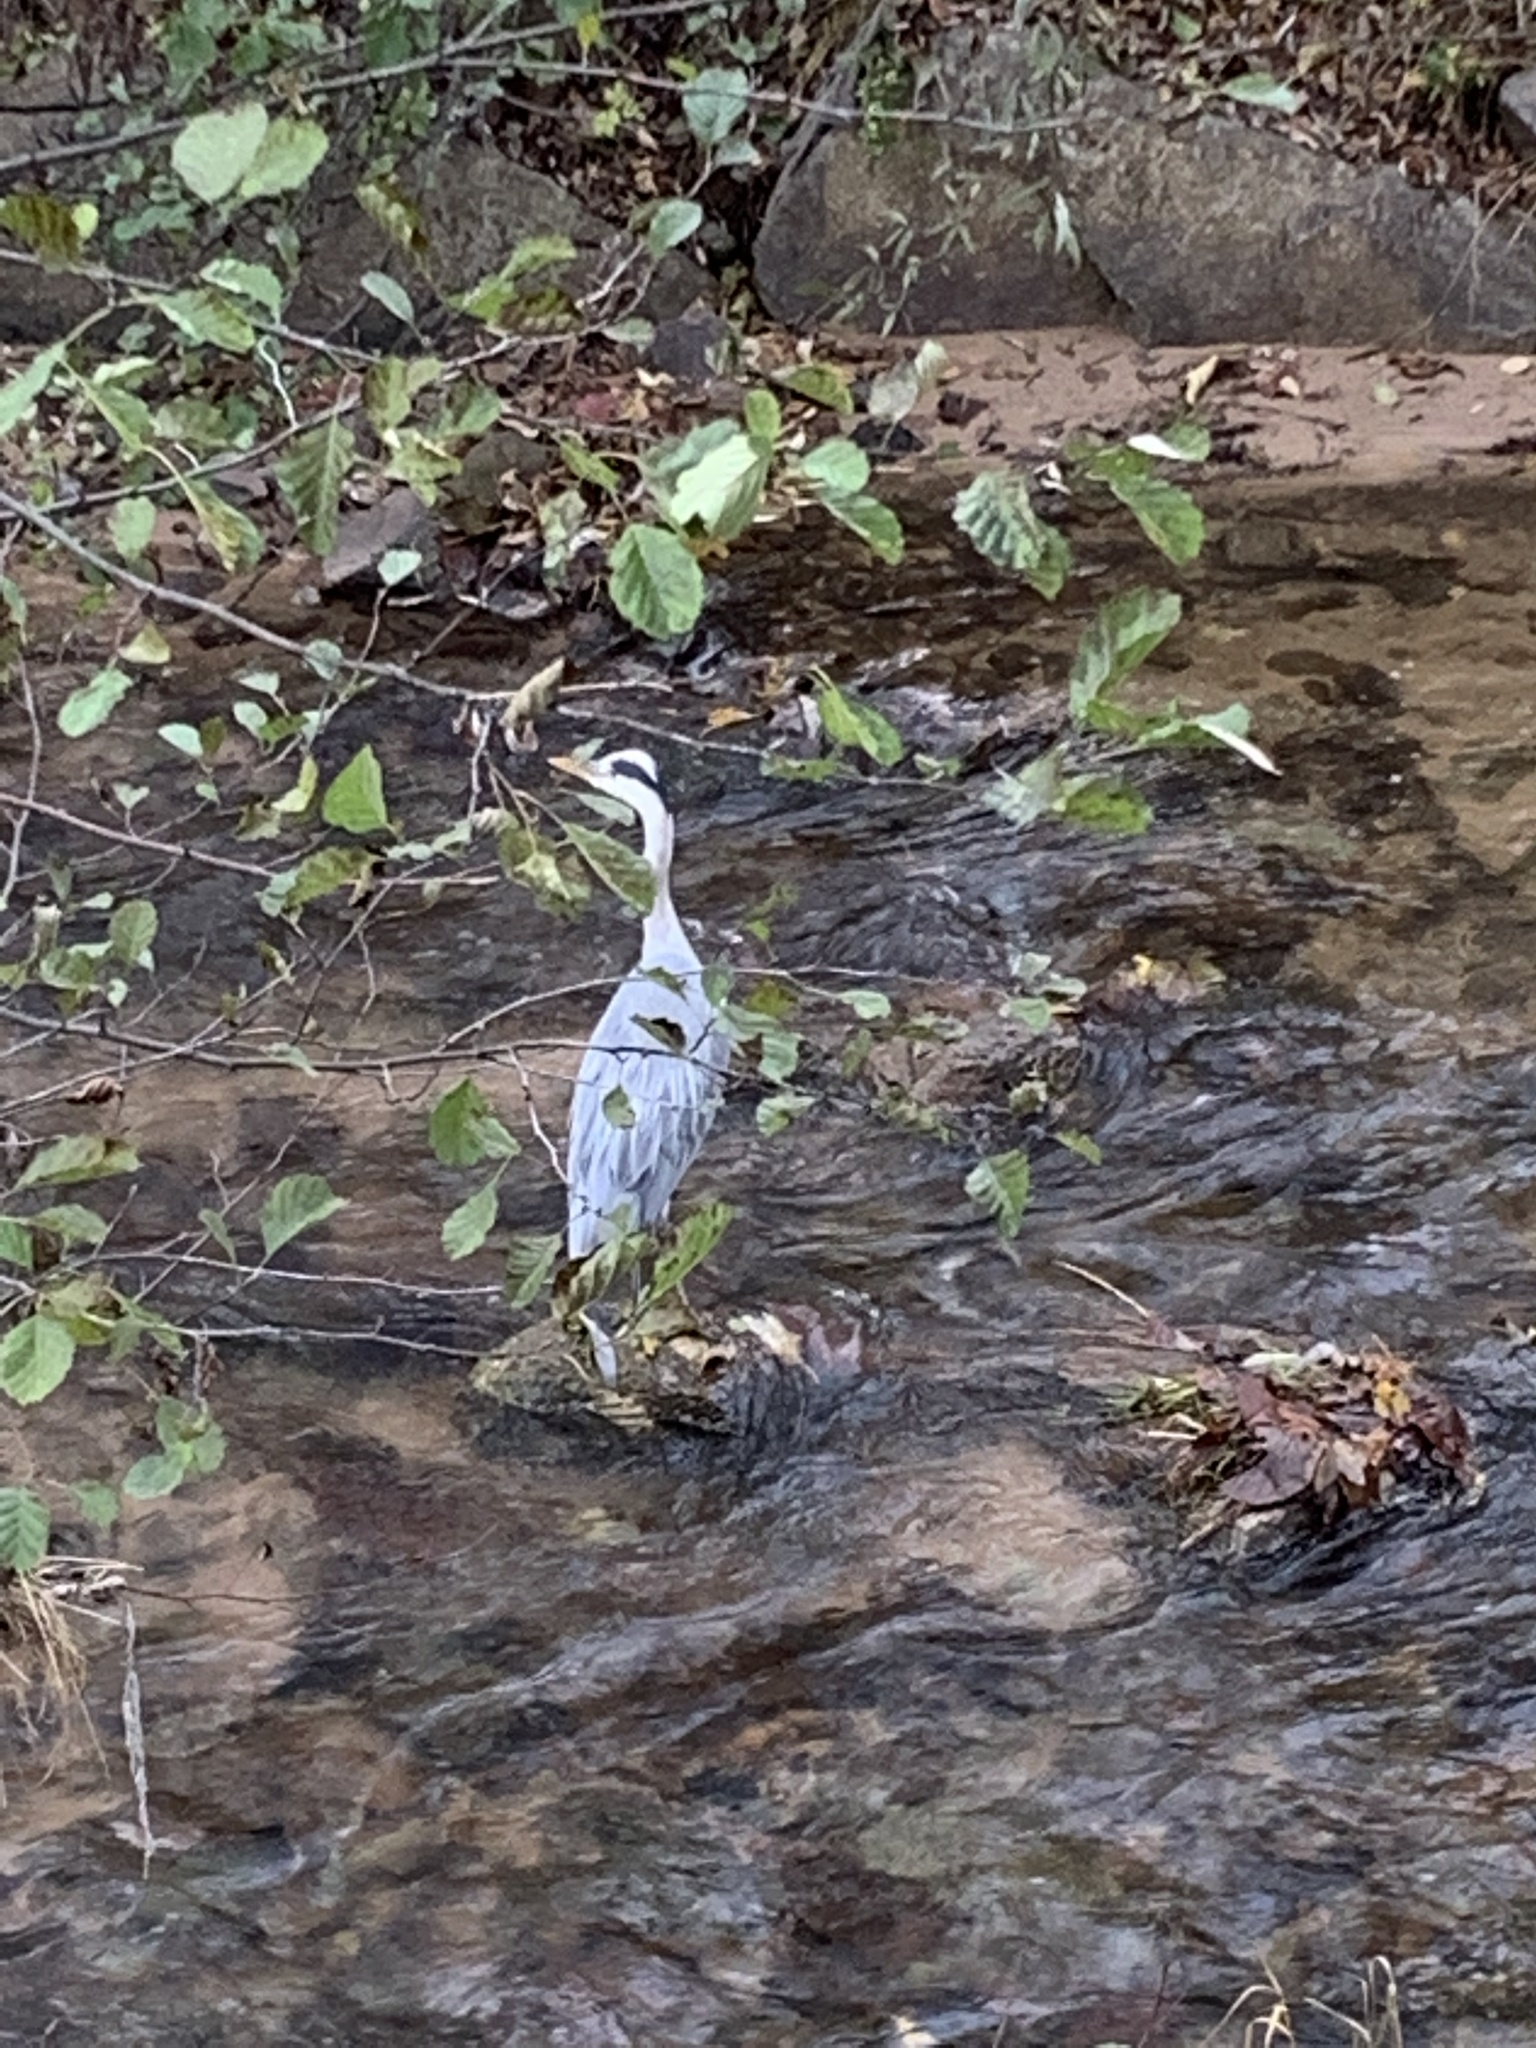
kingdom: Animalia
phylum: Chordata
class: Aves
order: Pelecaniformes
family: Ardeidae
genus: Ardea
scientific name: Ardea cinerea
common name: Grey heron
